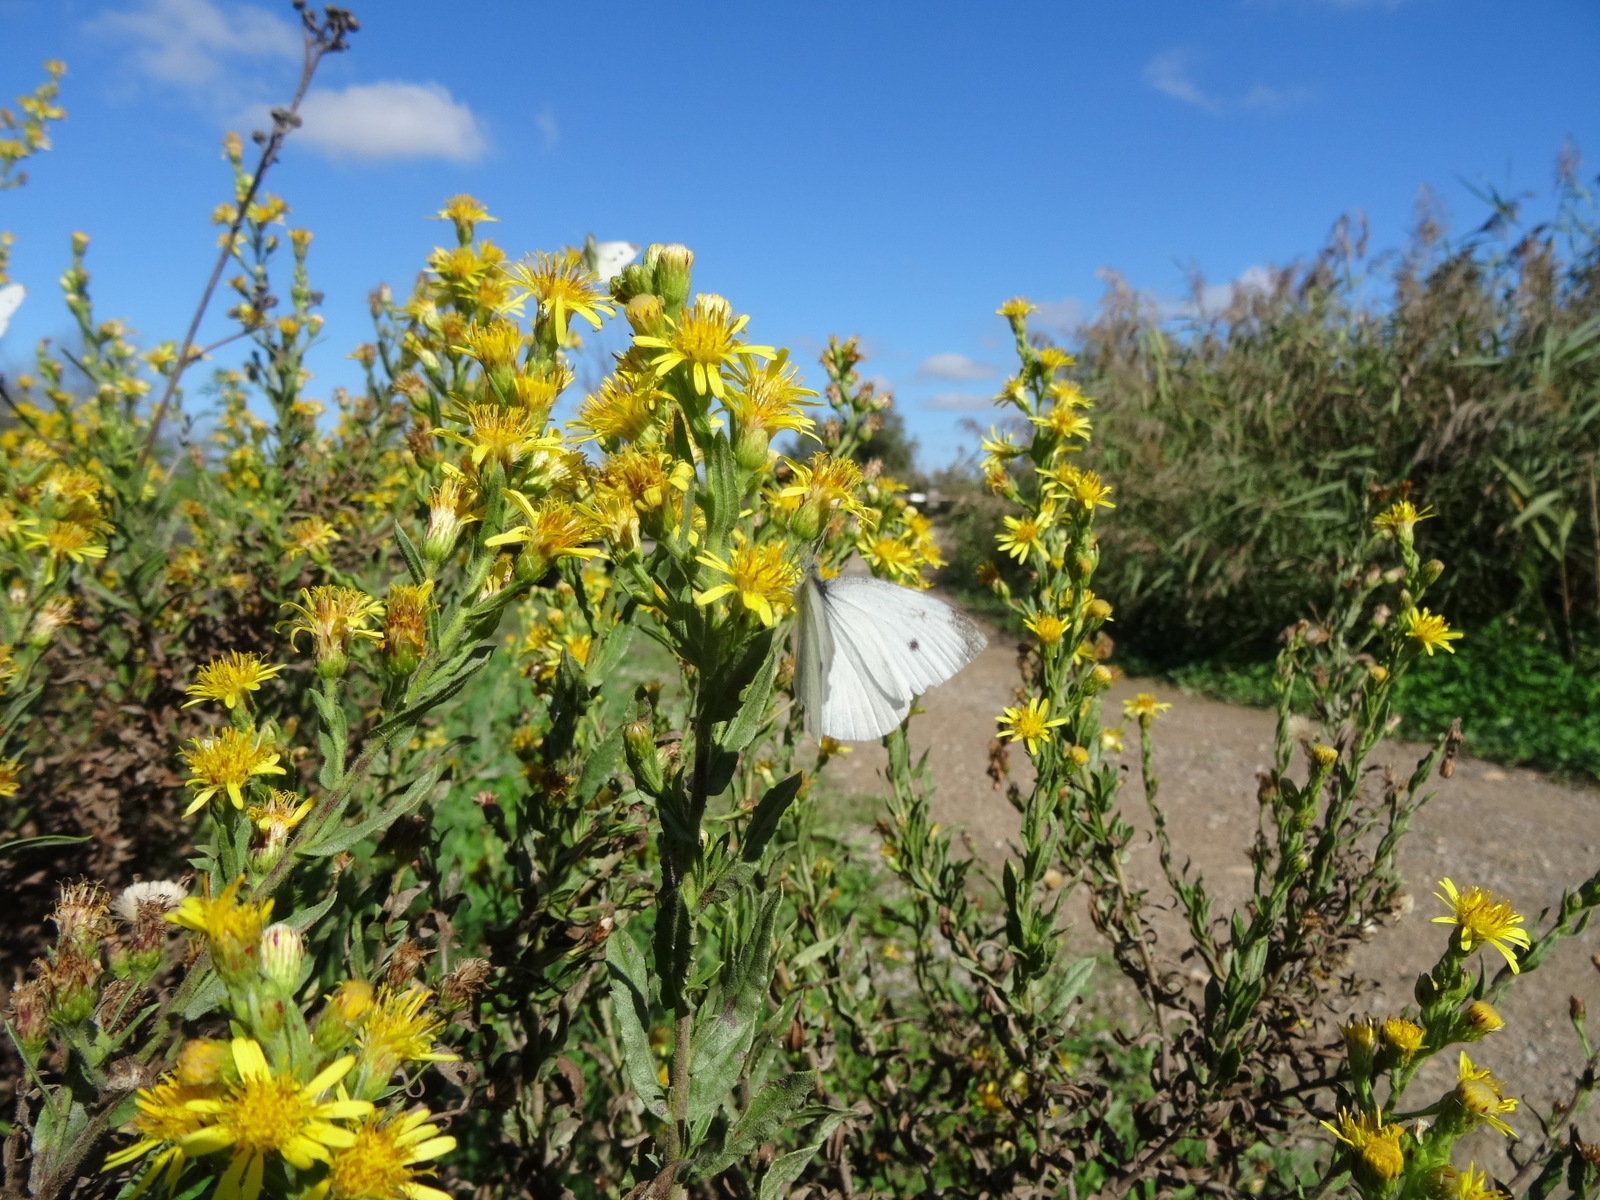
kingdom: Plantae
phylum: Tracheophyta
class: Magnoliopsida
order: Asterales
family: Asteraceae
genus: Dittrichia
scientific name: Dittrichia viscosa
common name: Woody fleabane
